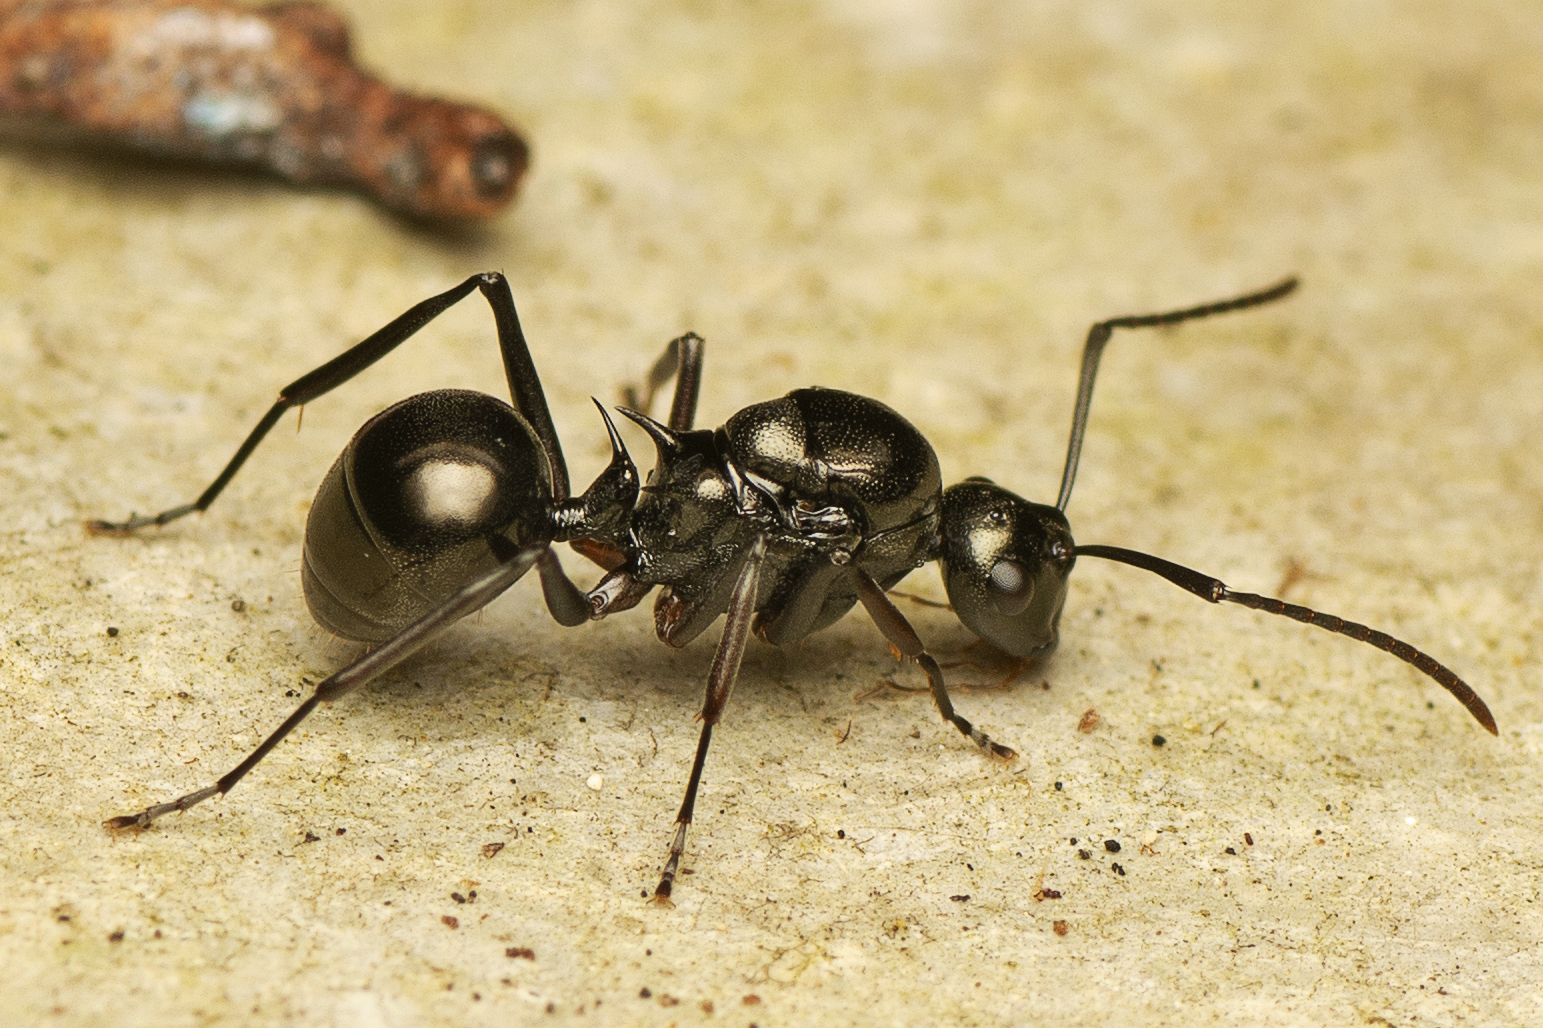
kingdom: Animalia
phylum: Arthropoda
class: Insecta
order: Hymenoptera
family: Formicidae
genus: Polyrhachis
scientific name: Polyrhachis mucronata
